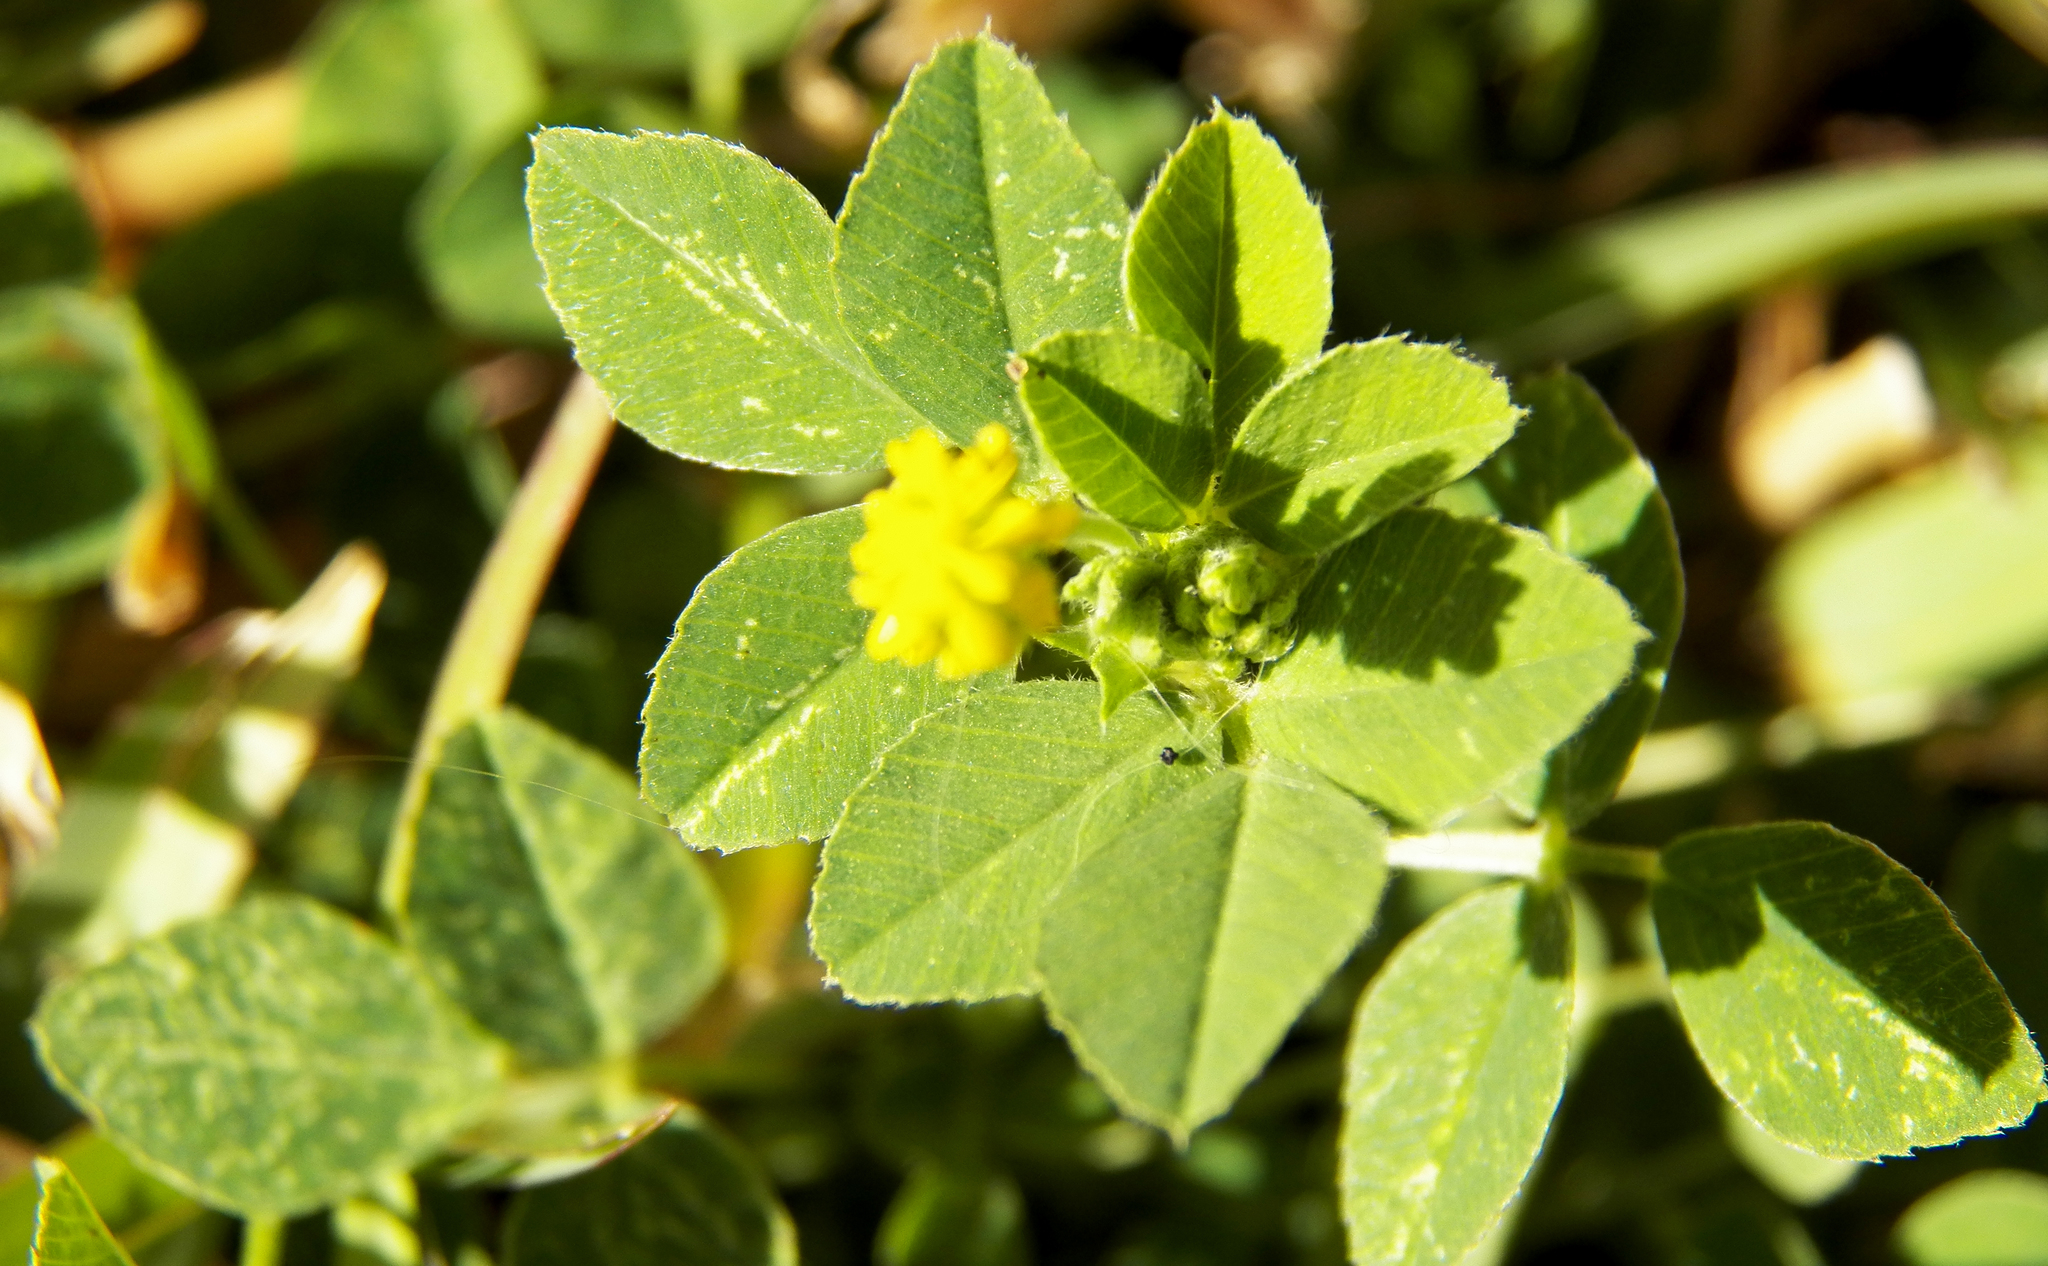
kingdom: Plantae
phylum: Tracheophyta
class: Magnoliopsida
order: Fabales
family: Fabaceae
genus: Medicago
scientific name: Medicago lupulina
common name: Black medick
